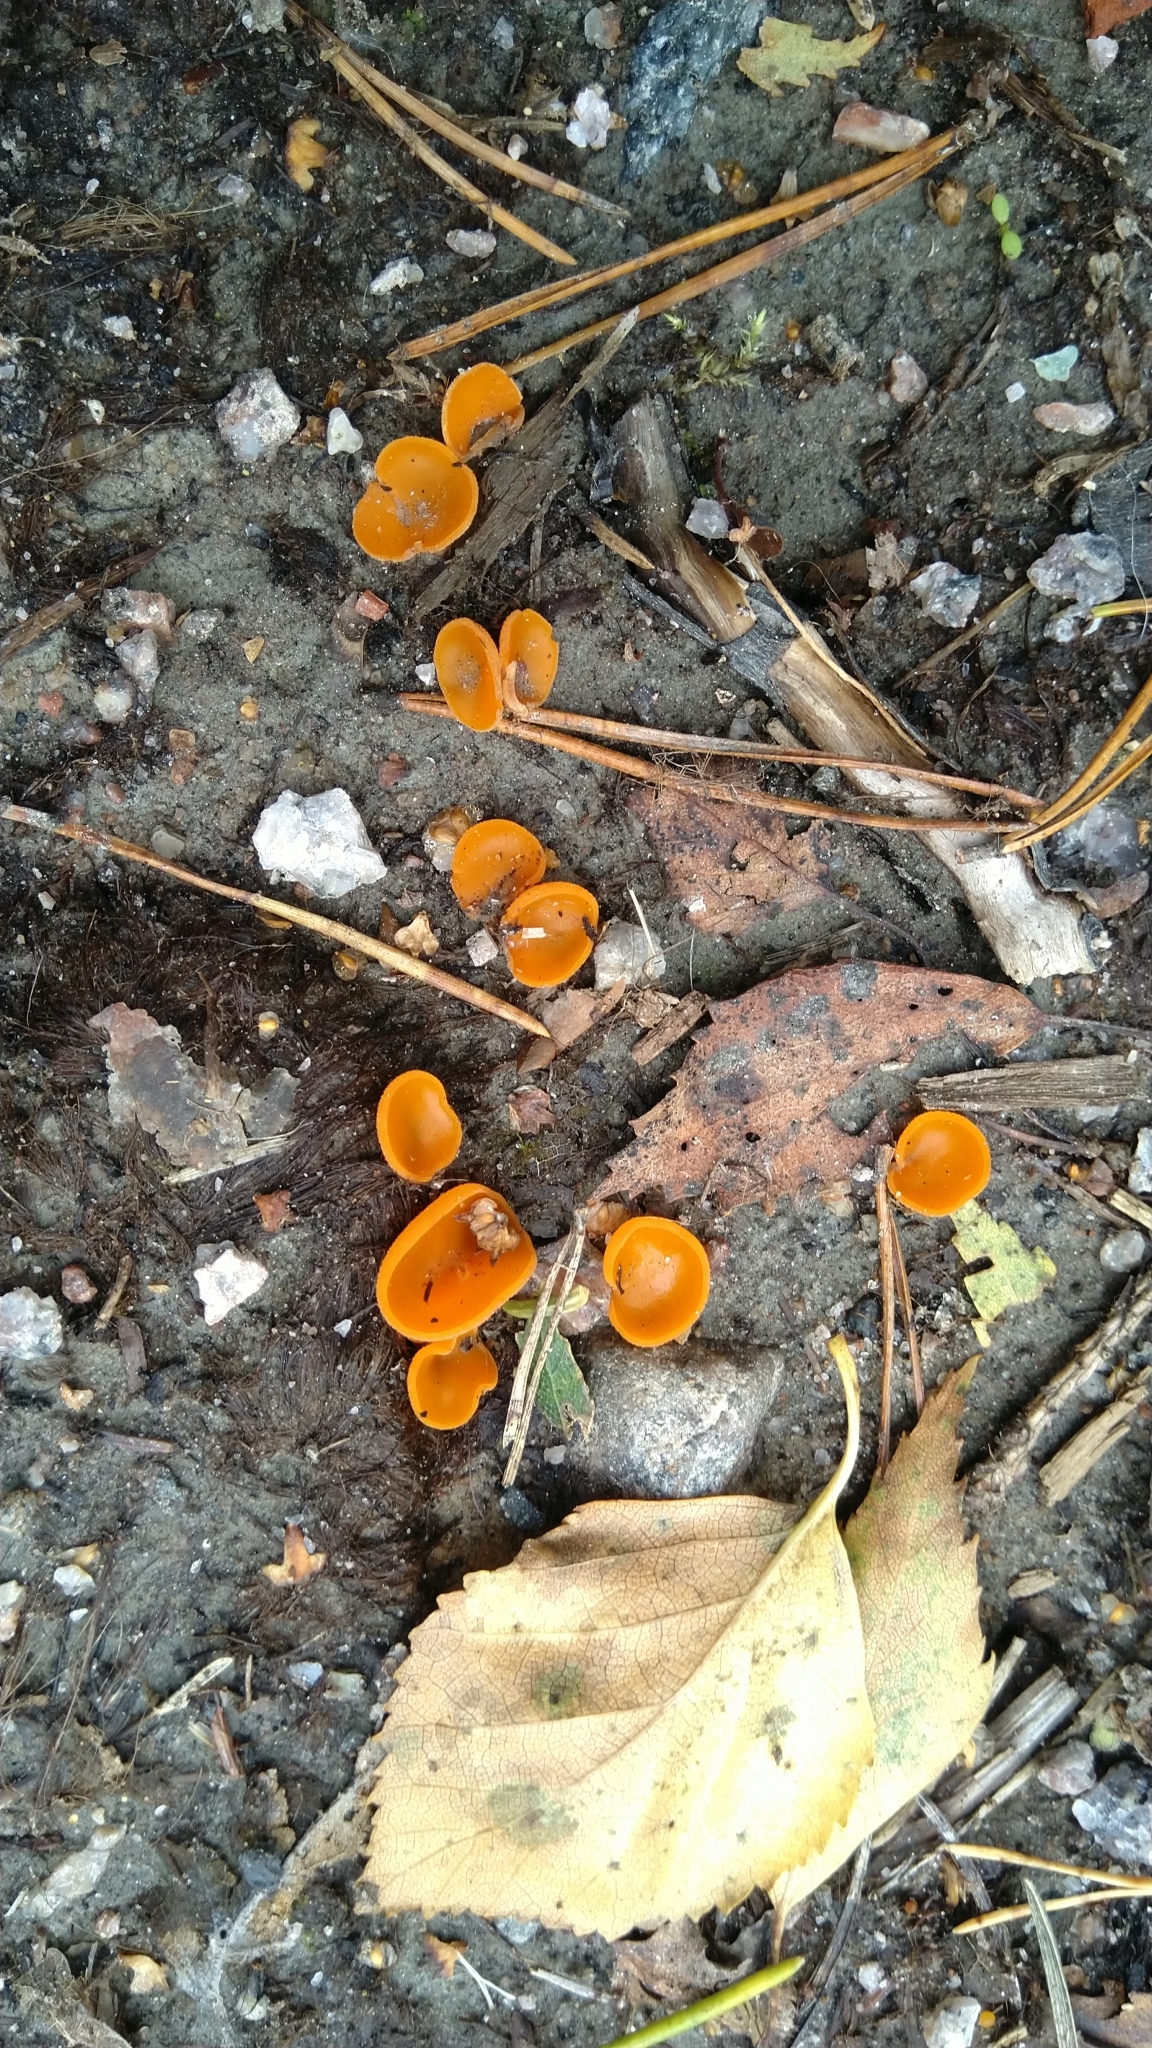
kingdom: Fungi
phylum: Ascomycota
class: Pezizomycetes
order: Pezizales
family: Pyronemataceae
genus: Aleuria
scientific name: Aleuria aurantia
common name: Orange peel fungus
